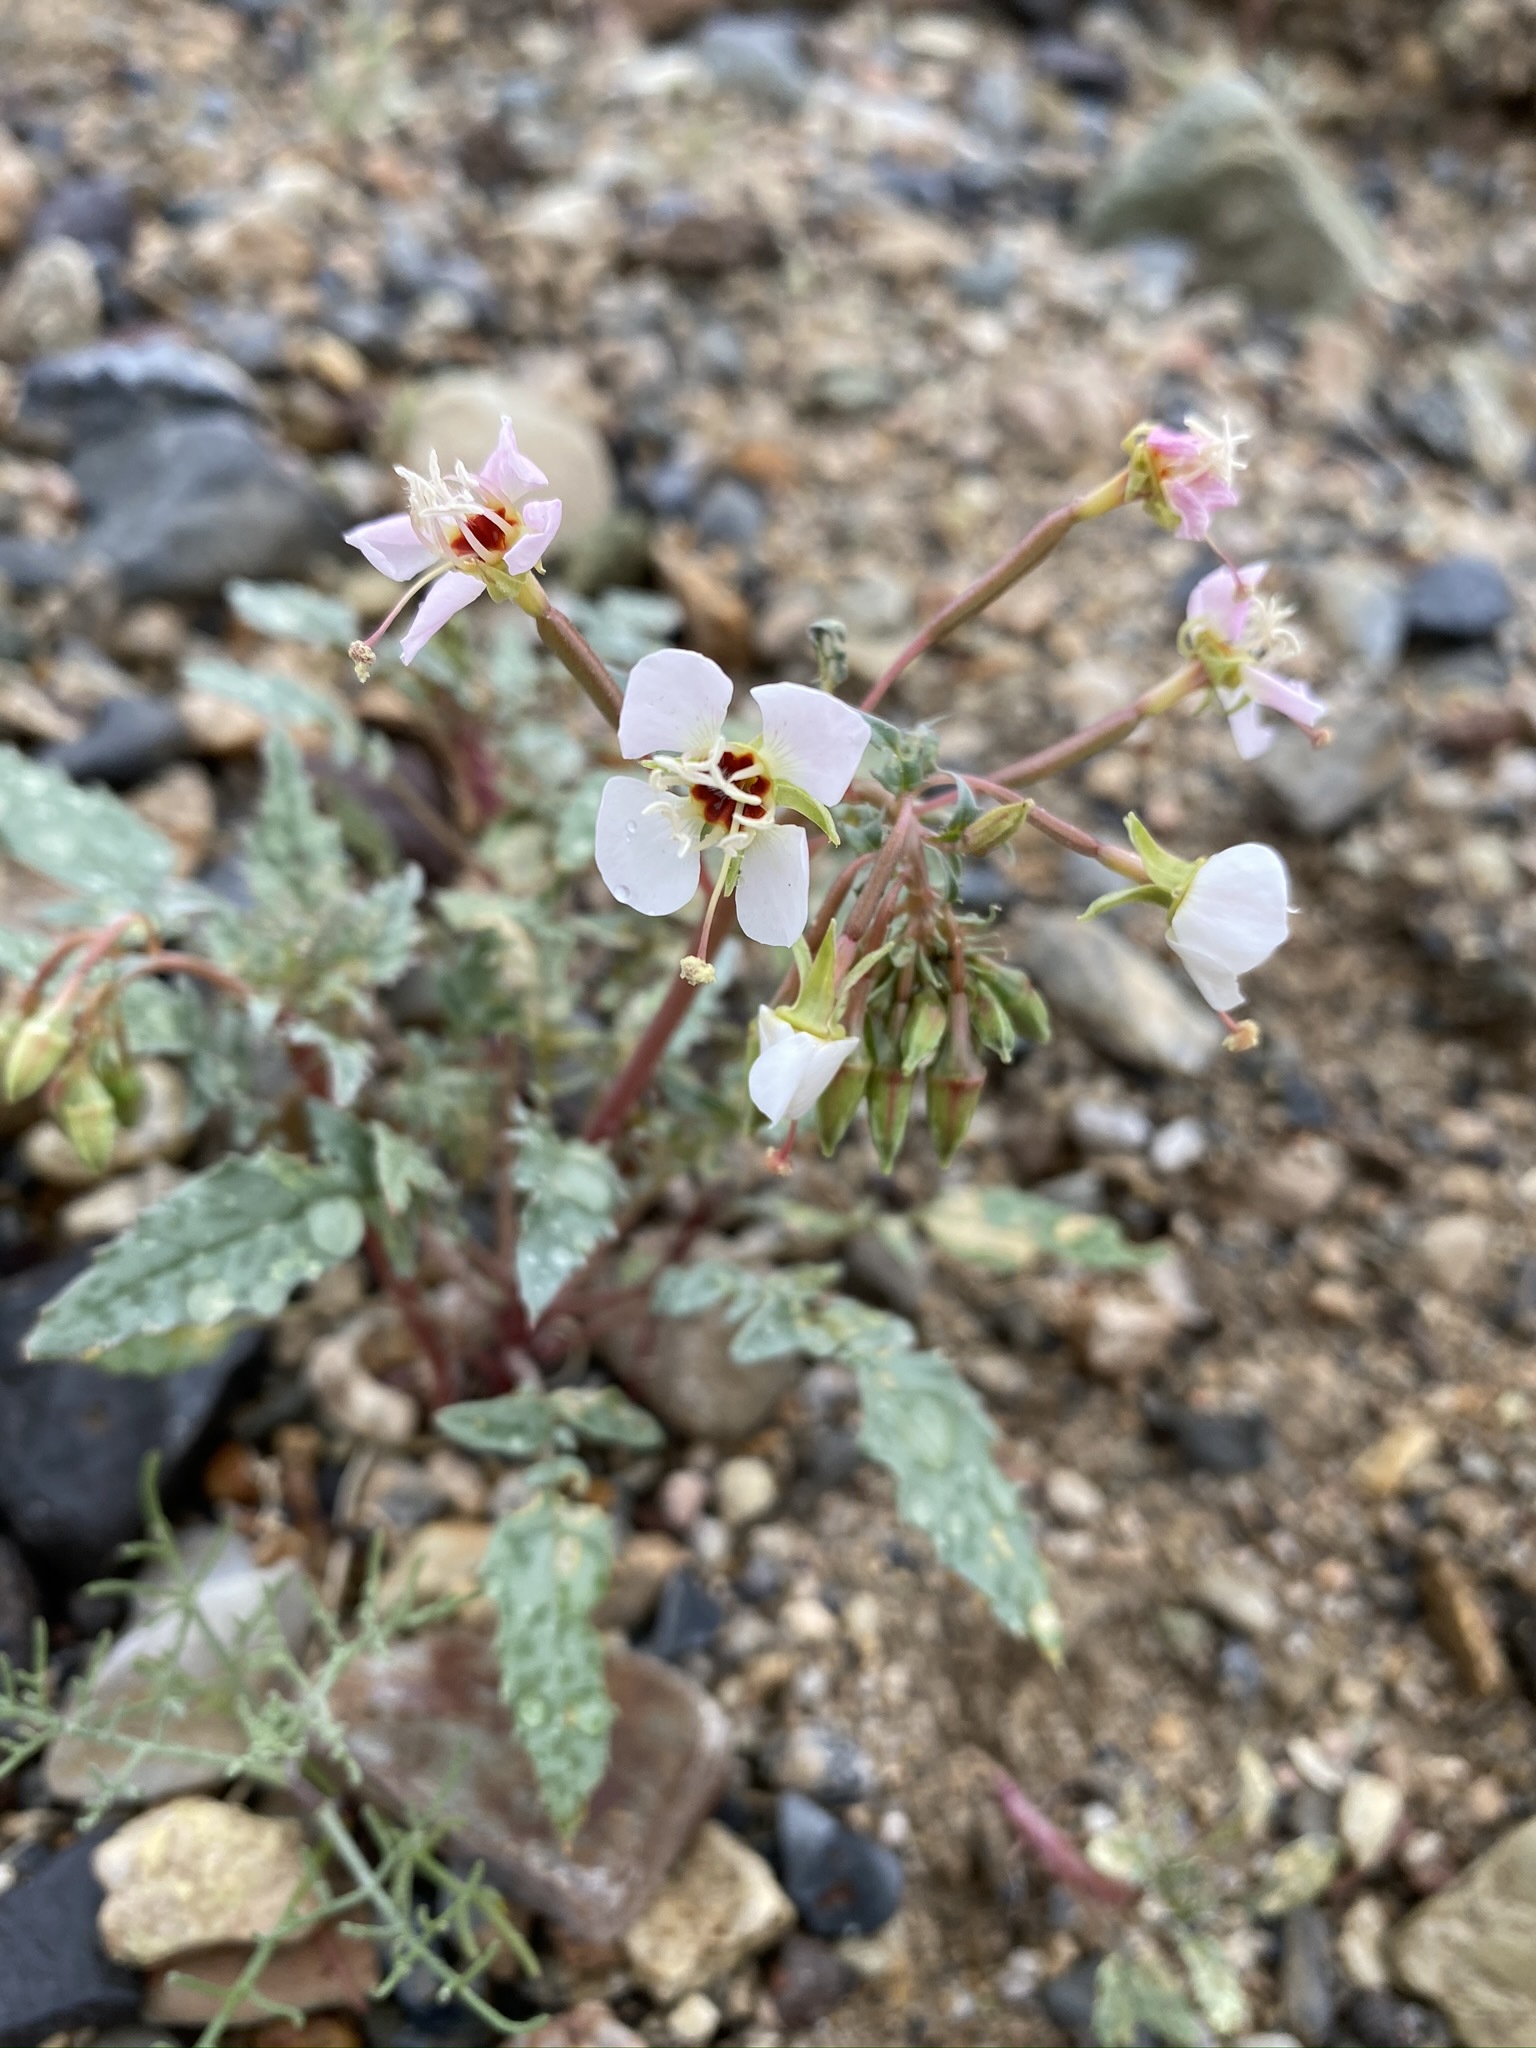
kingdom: Plantae
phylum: Tracheophyta
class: Magnoliopsida
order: Myrtales
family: Onagraceae
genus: Chylismia
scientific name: Chylismia claviformis
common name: Browneyes
